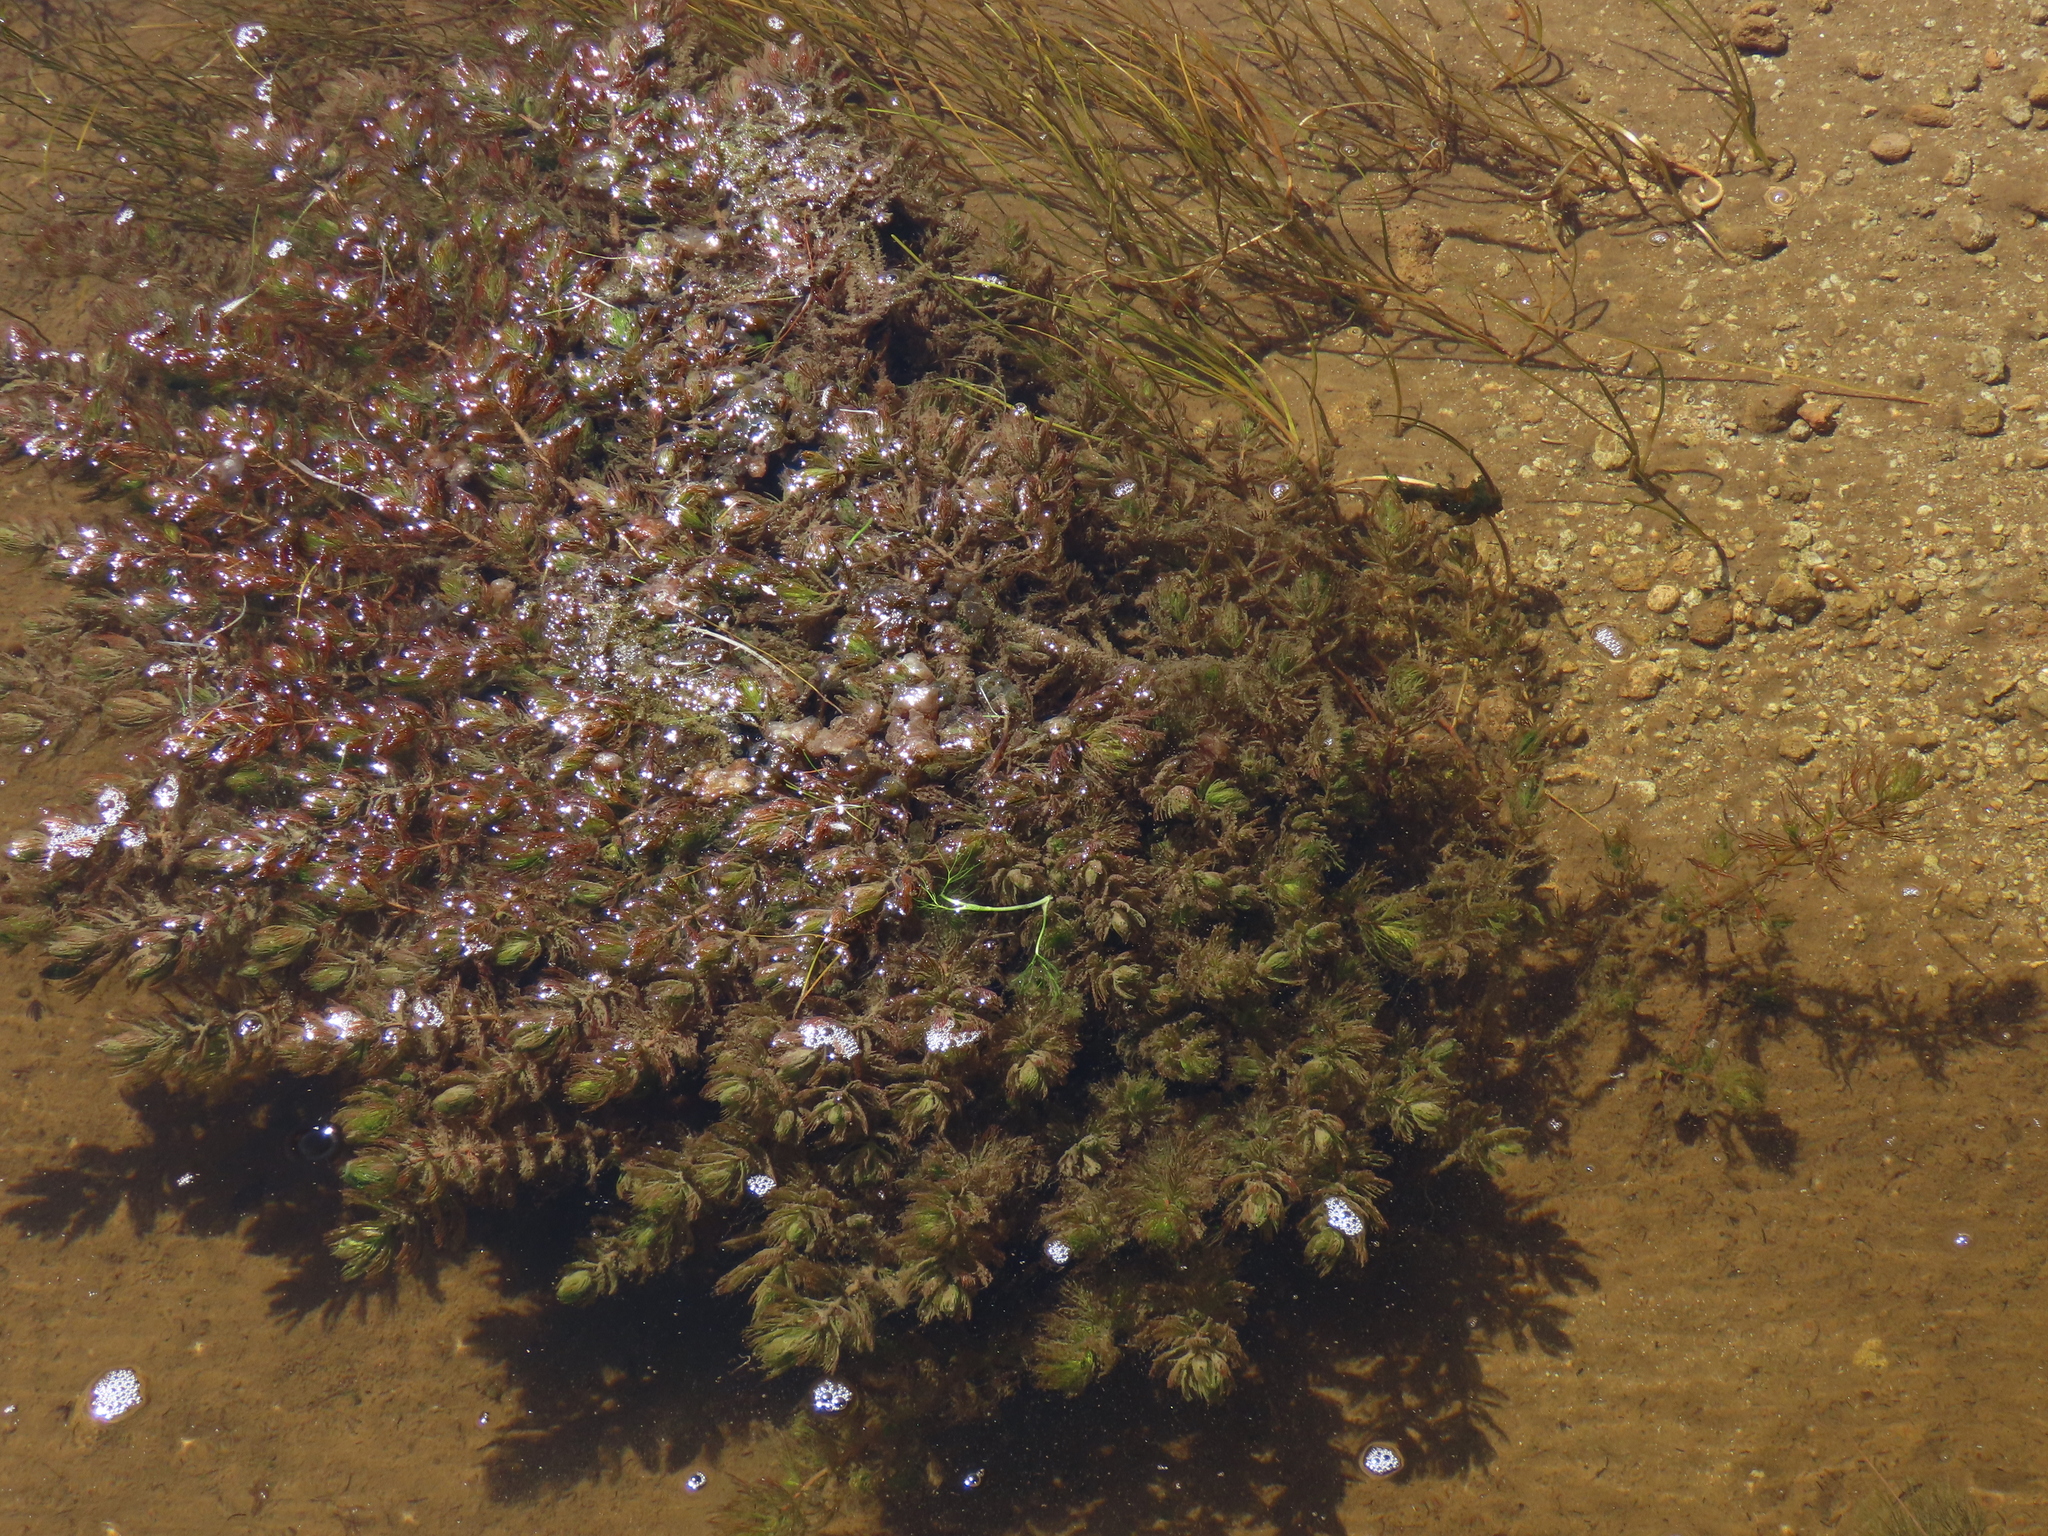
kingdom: Plantae
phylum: Tracheophyta
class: Magnoliopsida
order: Saxifragales
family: Haloragaceae
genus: Myriophyllum
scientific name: Myriophyllum quitense
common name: Andean water milfoil
